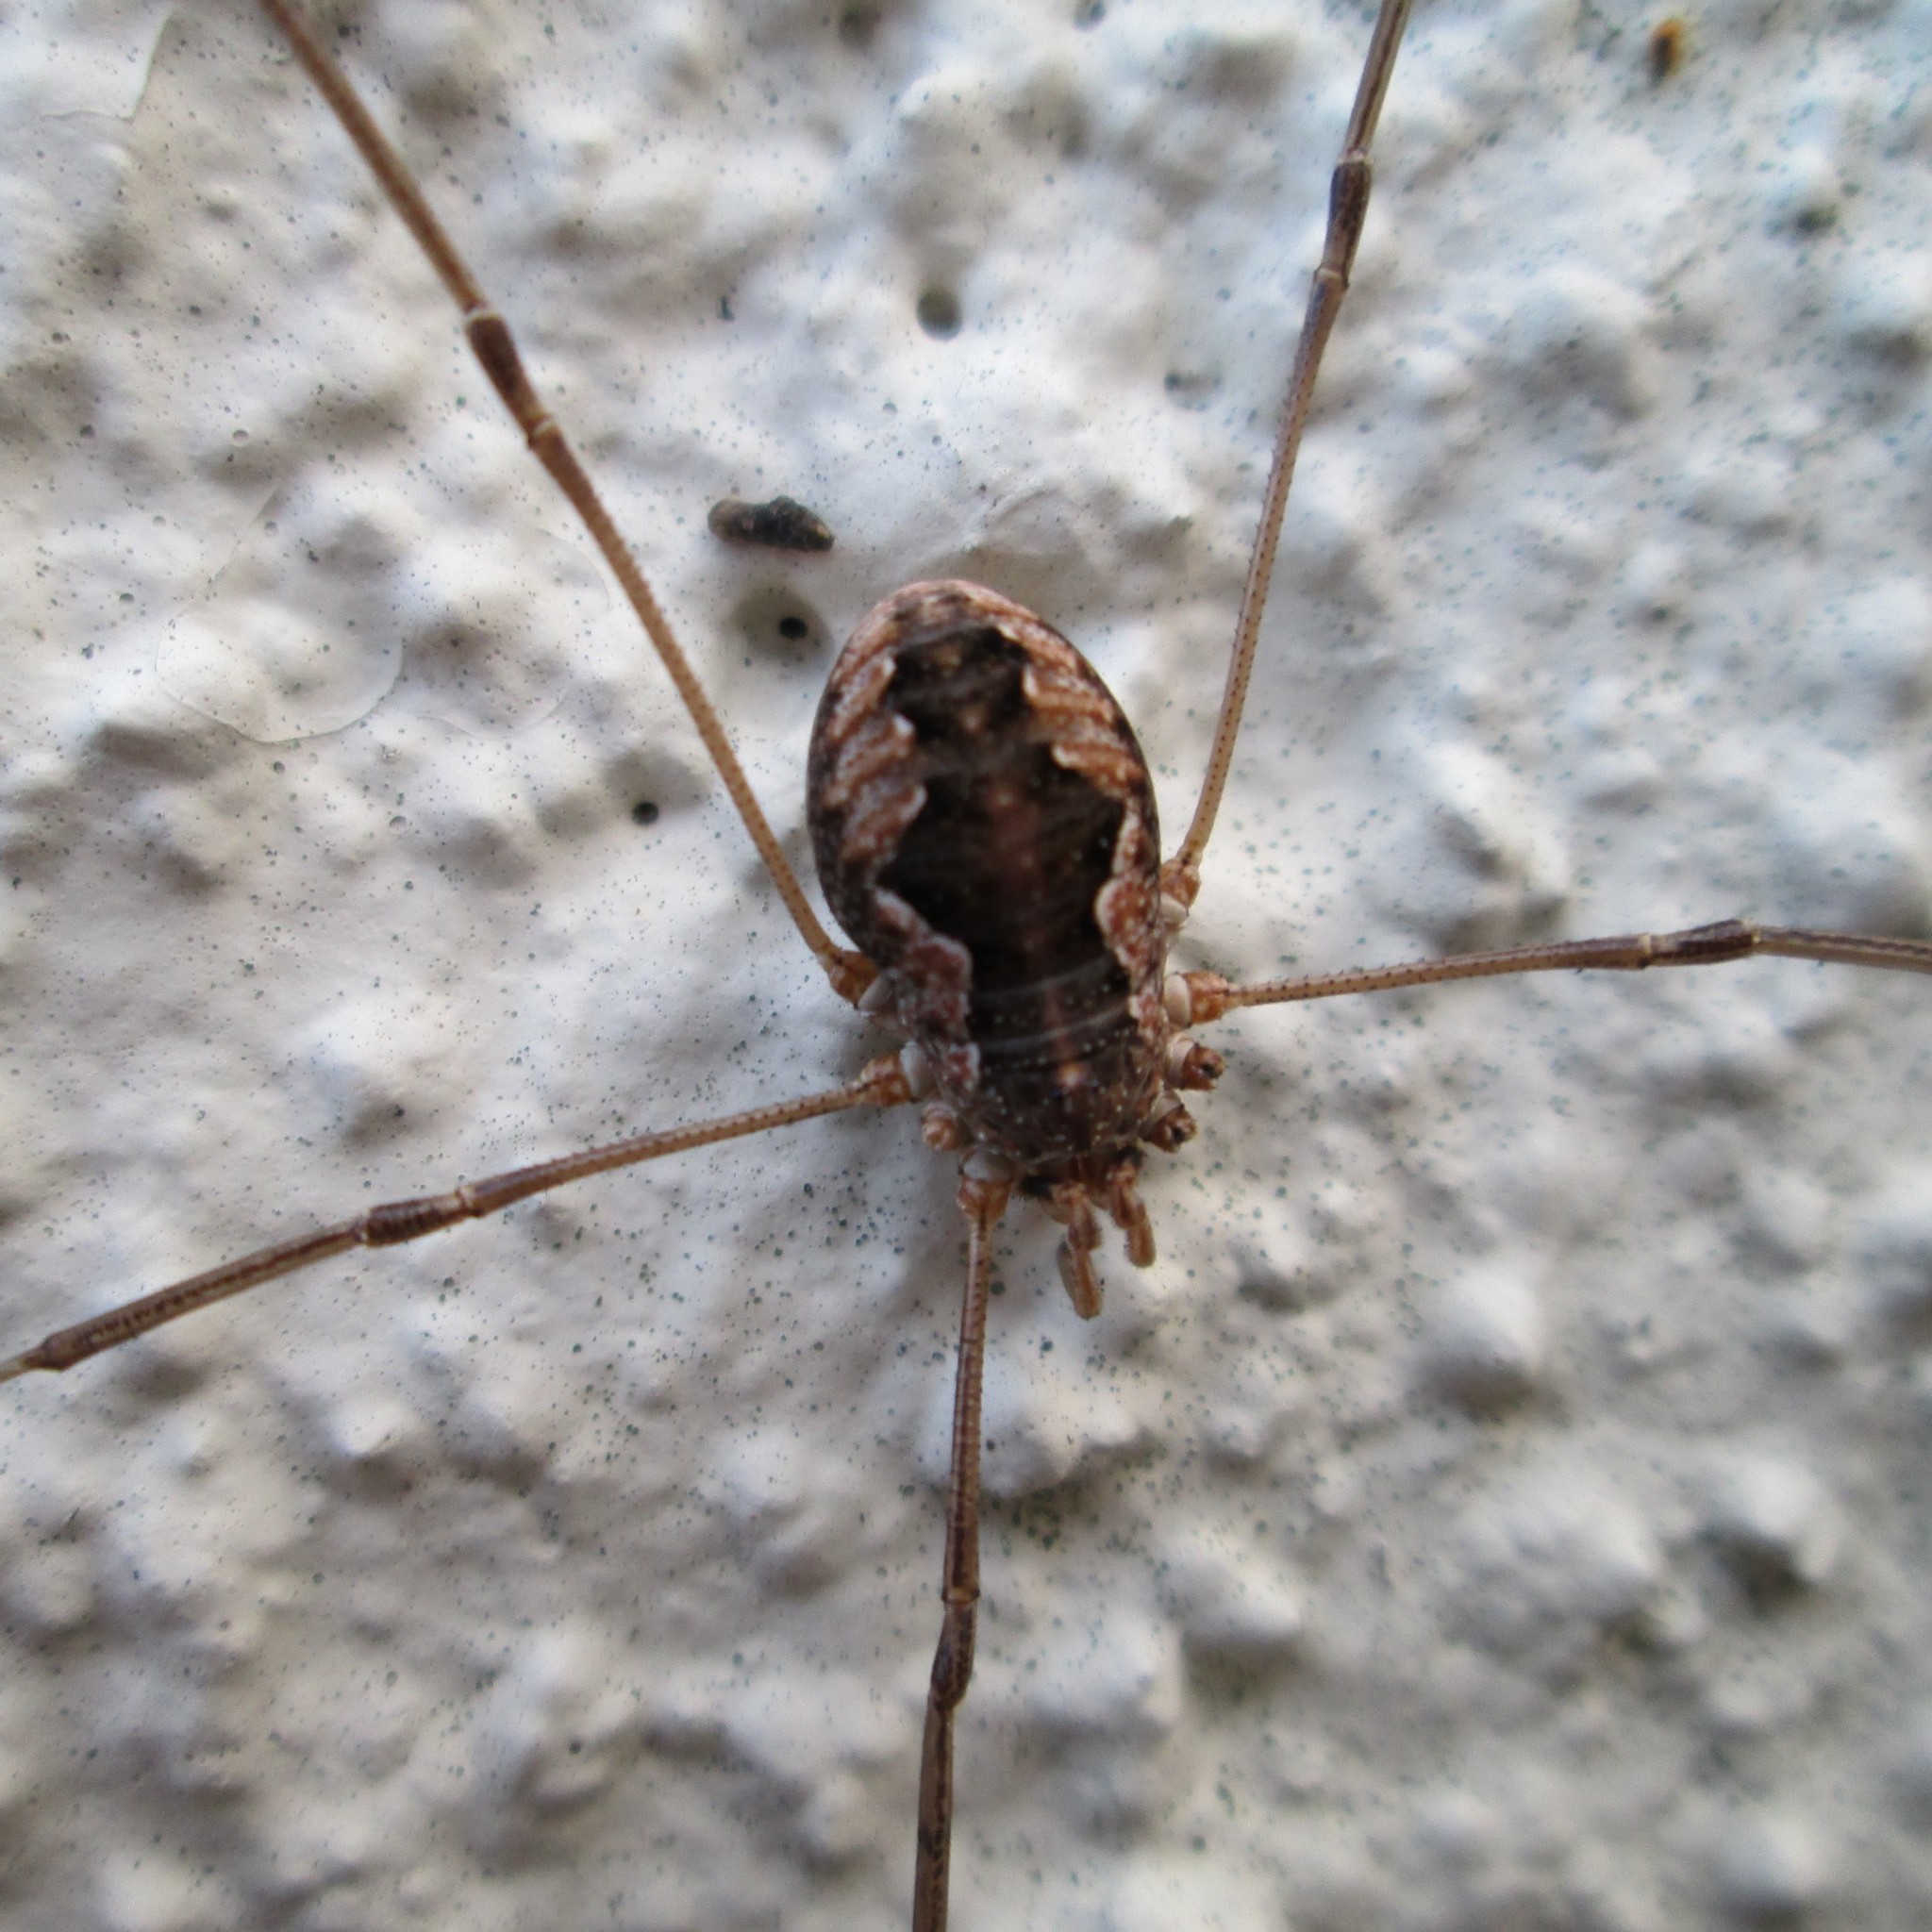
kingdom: Animalia
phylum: Arthropoda
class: Arachnida
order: Opiliones
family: Phalangiidae
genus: Phalangium
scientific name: Phalangium opilio
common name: Daddy longleg
